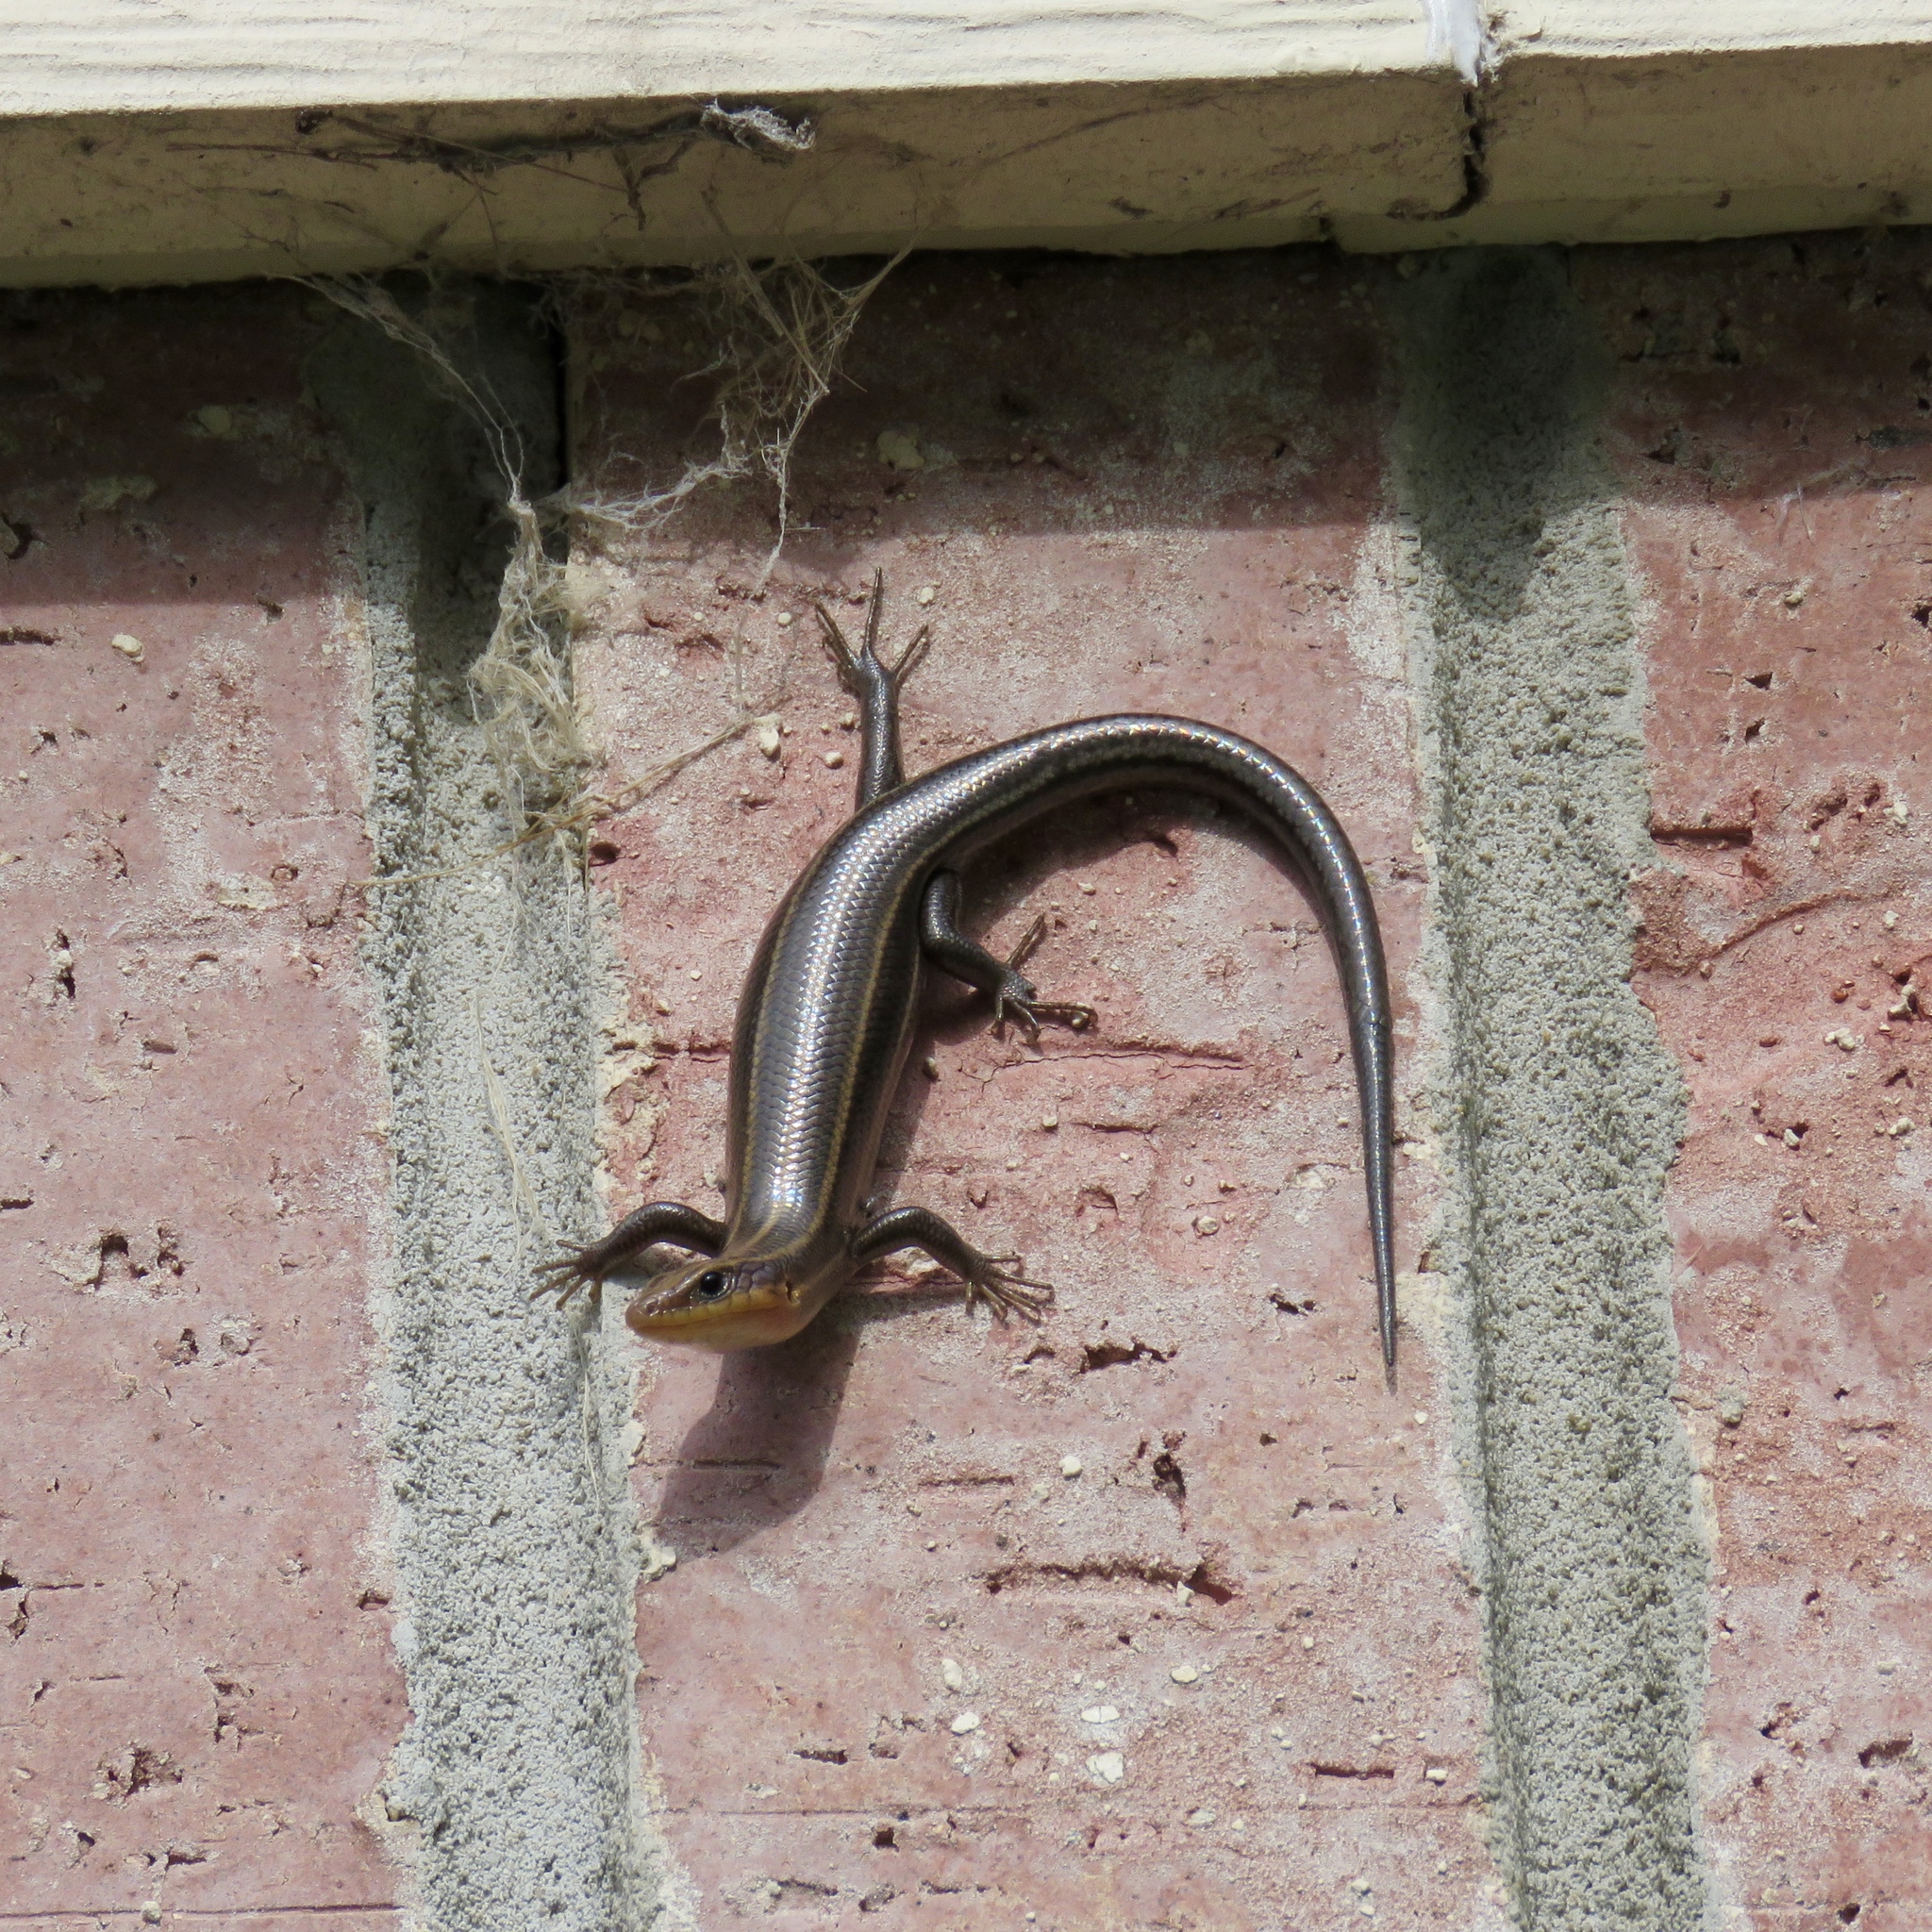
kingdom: Animalia
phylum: Chordata
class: Squamata
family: Scincidae
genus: Plestiodon
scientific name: Plestiodon fasciatus
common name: Five-lined skink
